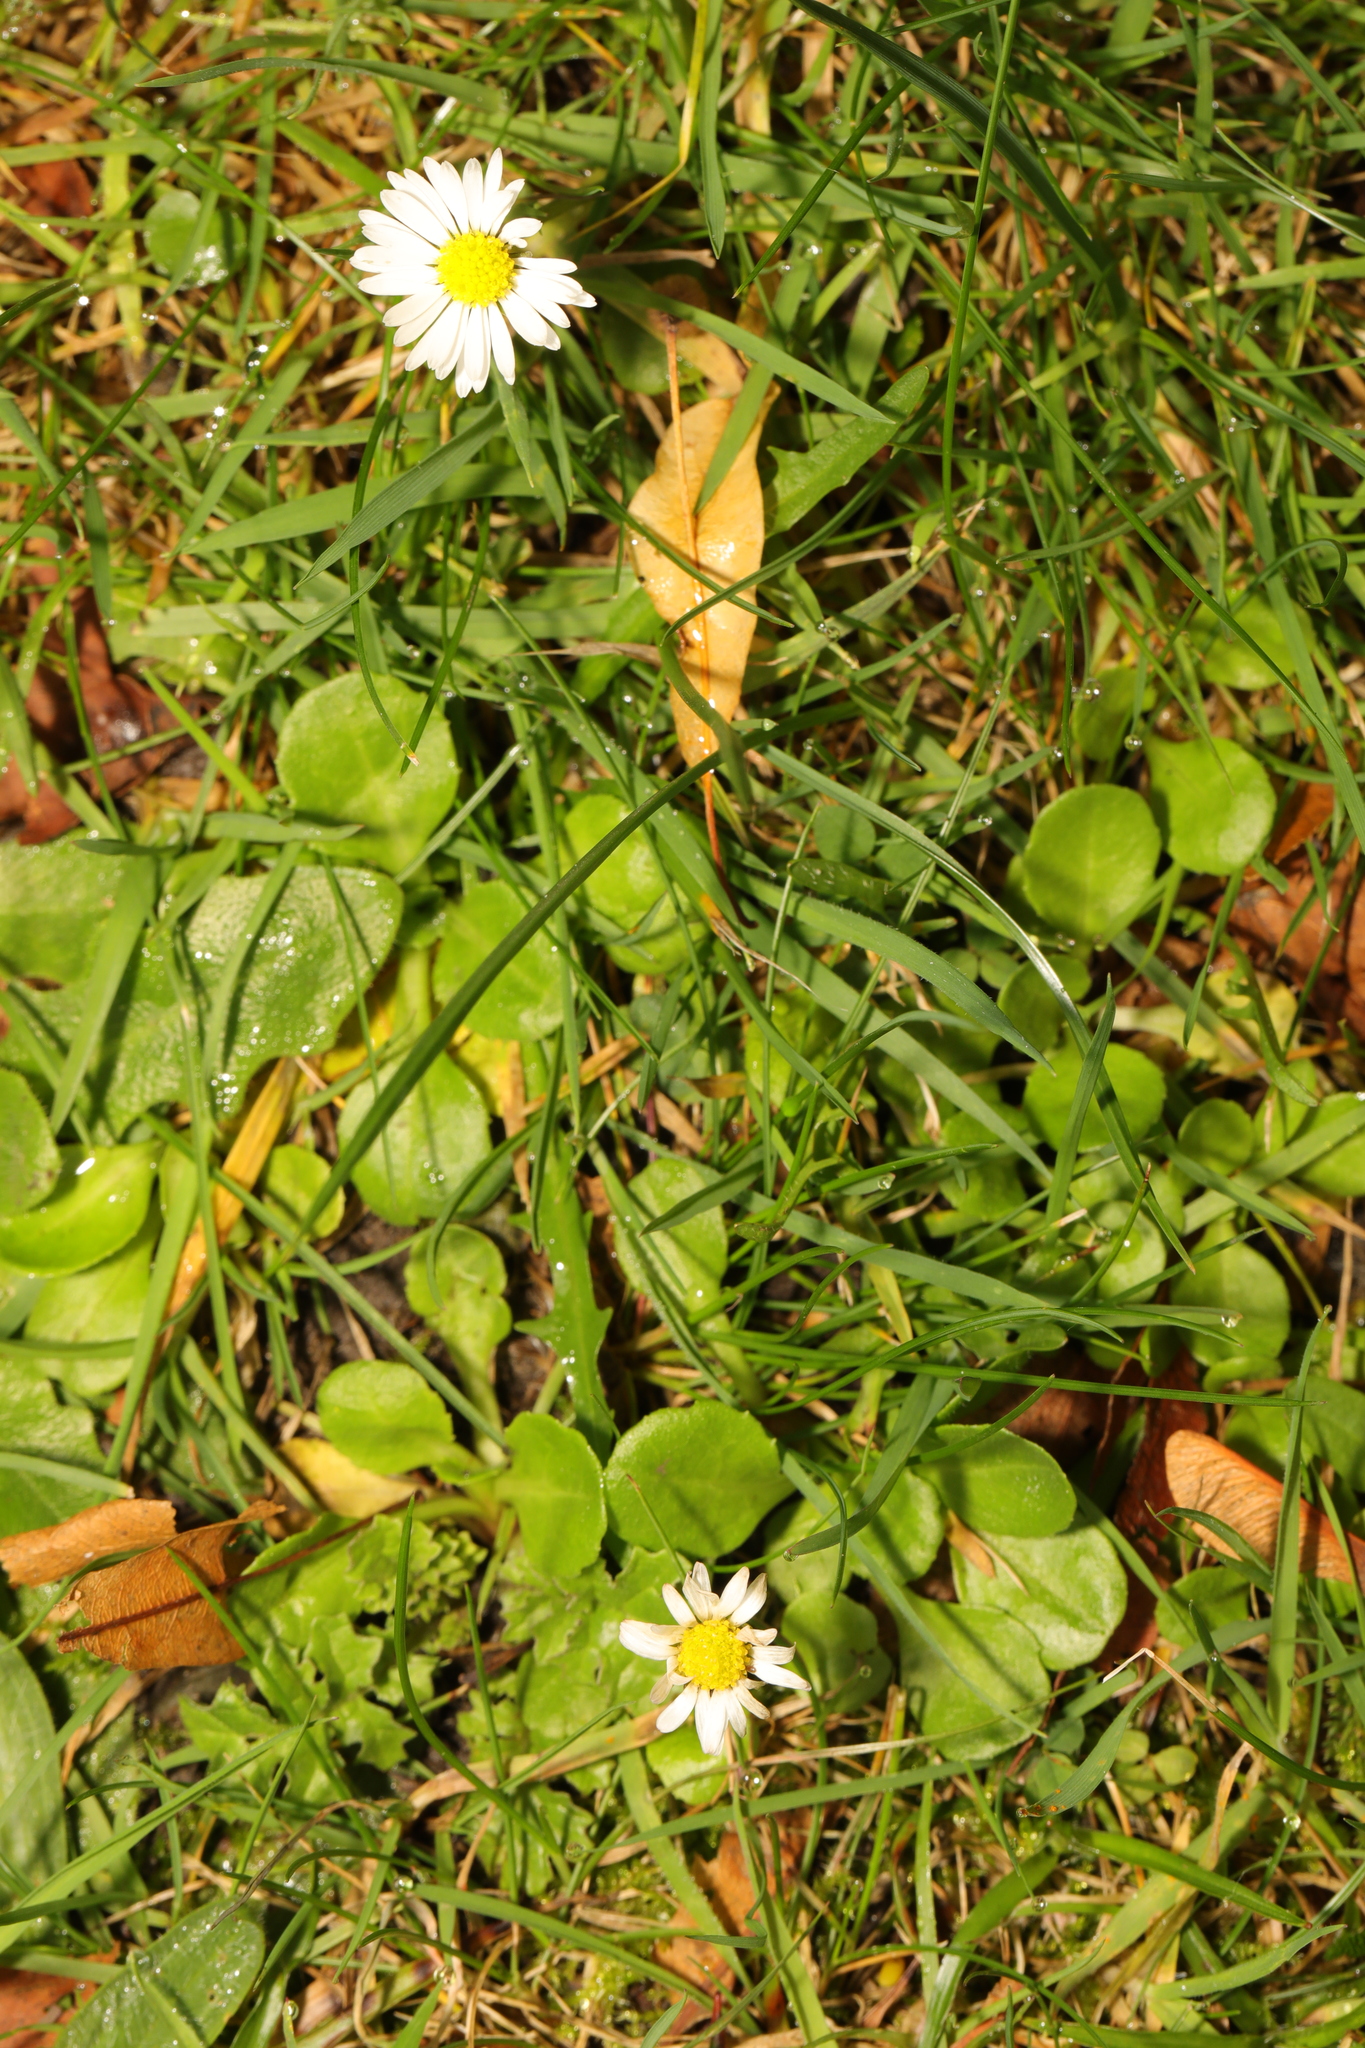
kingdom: Plantae
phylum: Tracheophyta
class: Magnoliopsida
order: Asterales
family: Asteraceae
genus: Bellis
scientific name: Bellis perennis
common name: Lawndaisy
